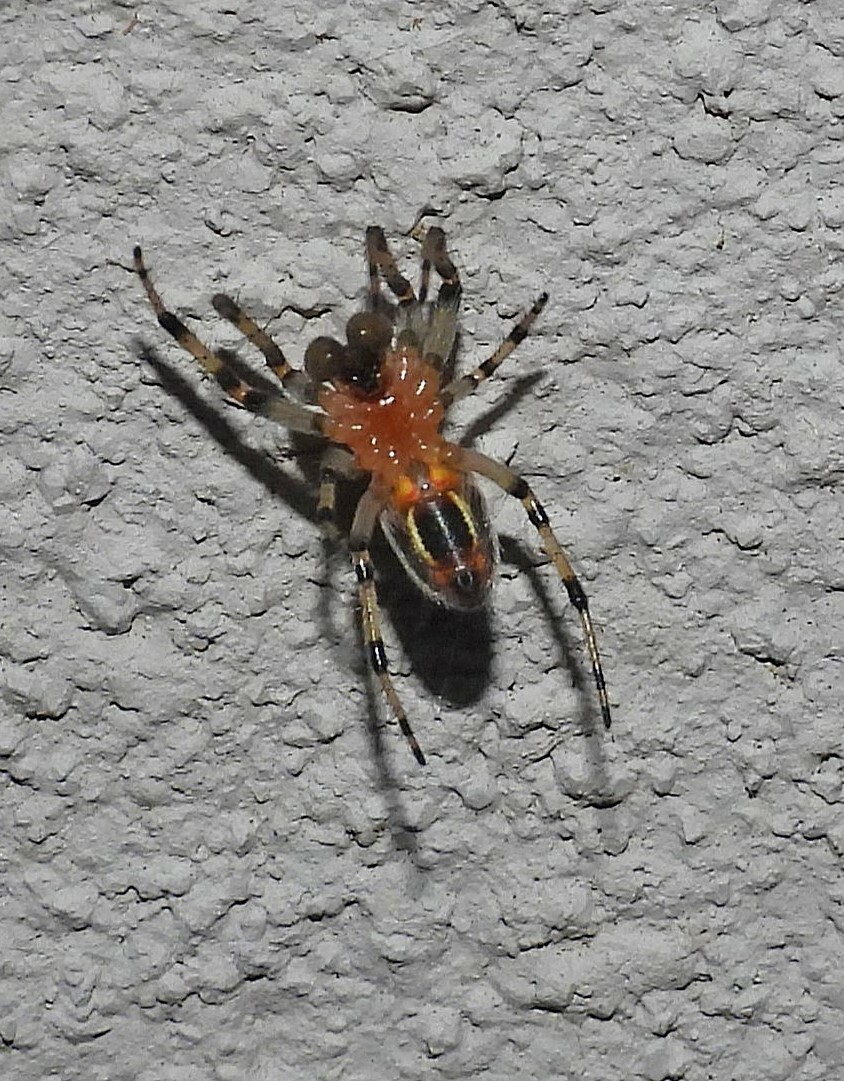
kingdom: Animalia
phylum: Arthropoda
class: Arachnida
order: Araneae
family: Araneidae
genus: Alpaida
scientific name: Alpaida veniliae
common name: Orb weavers
